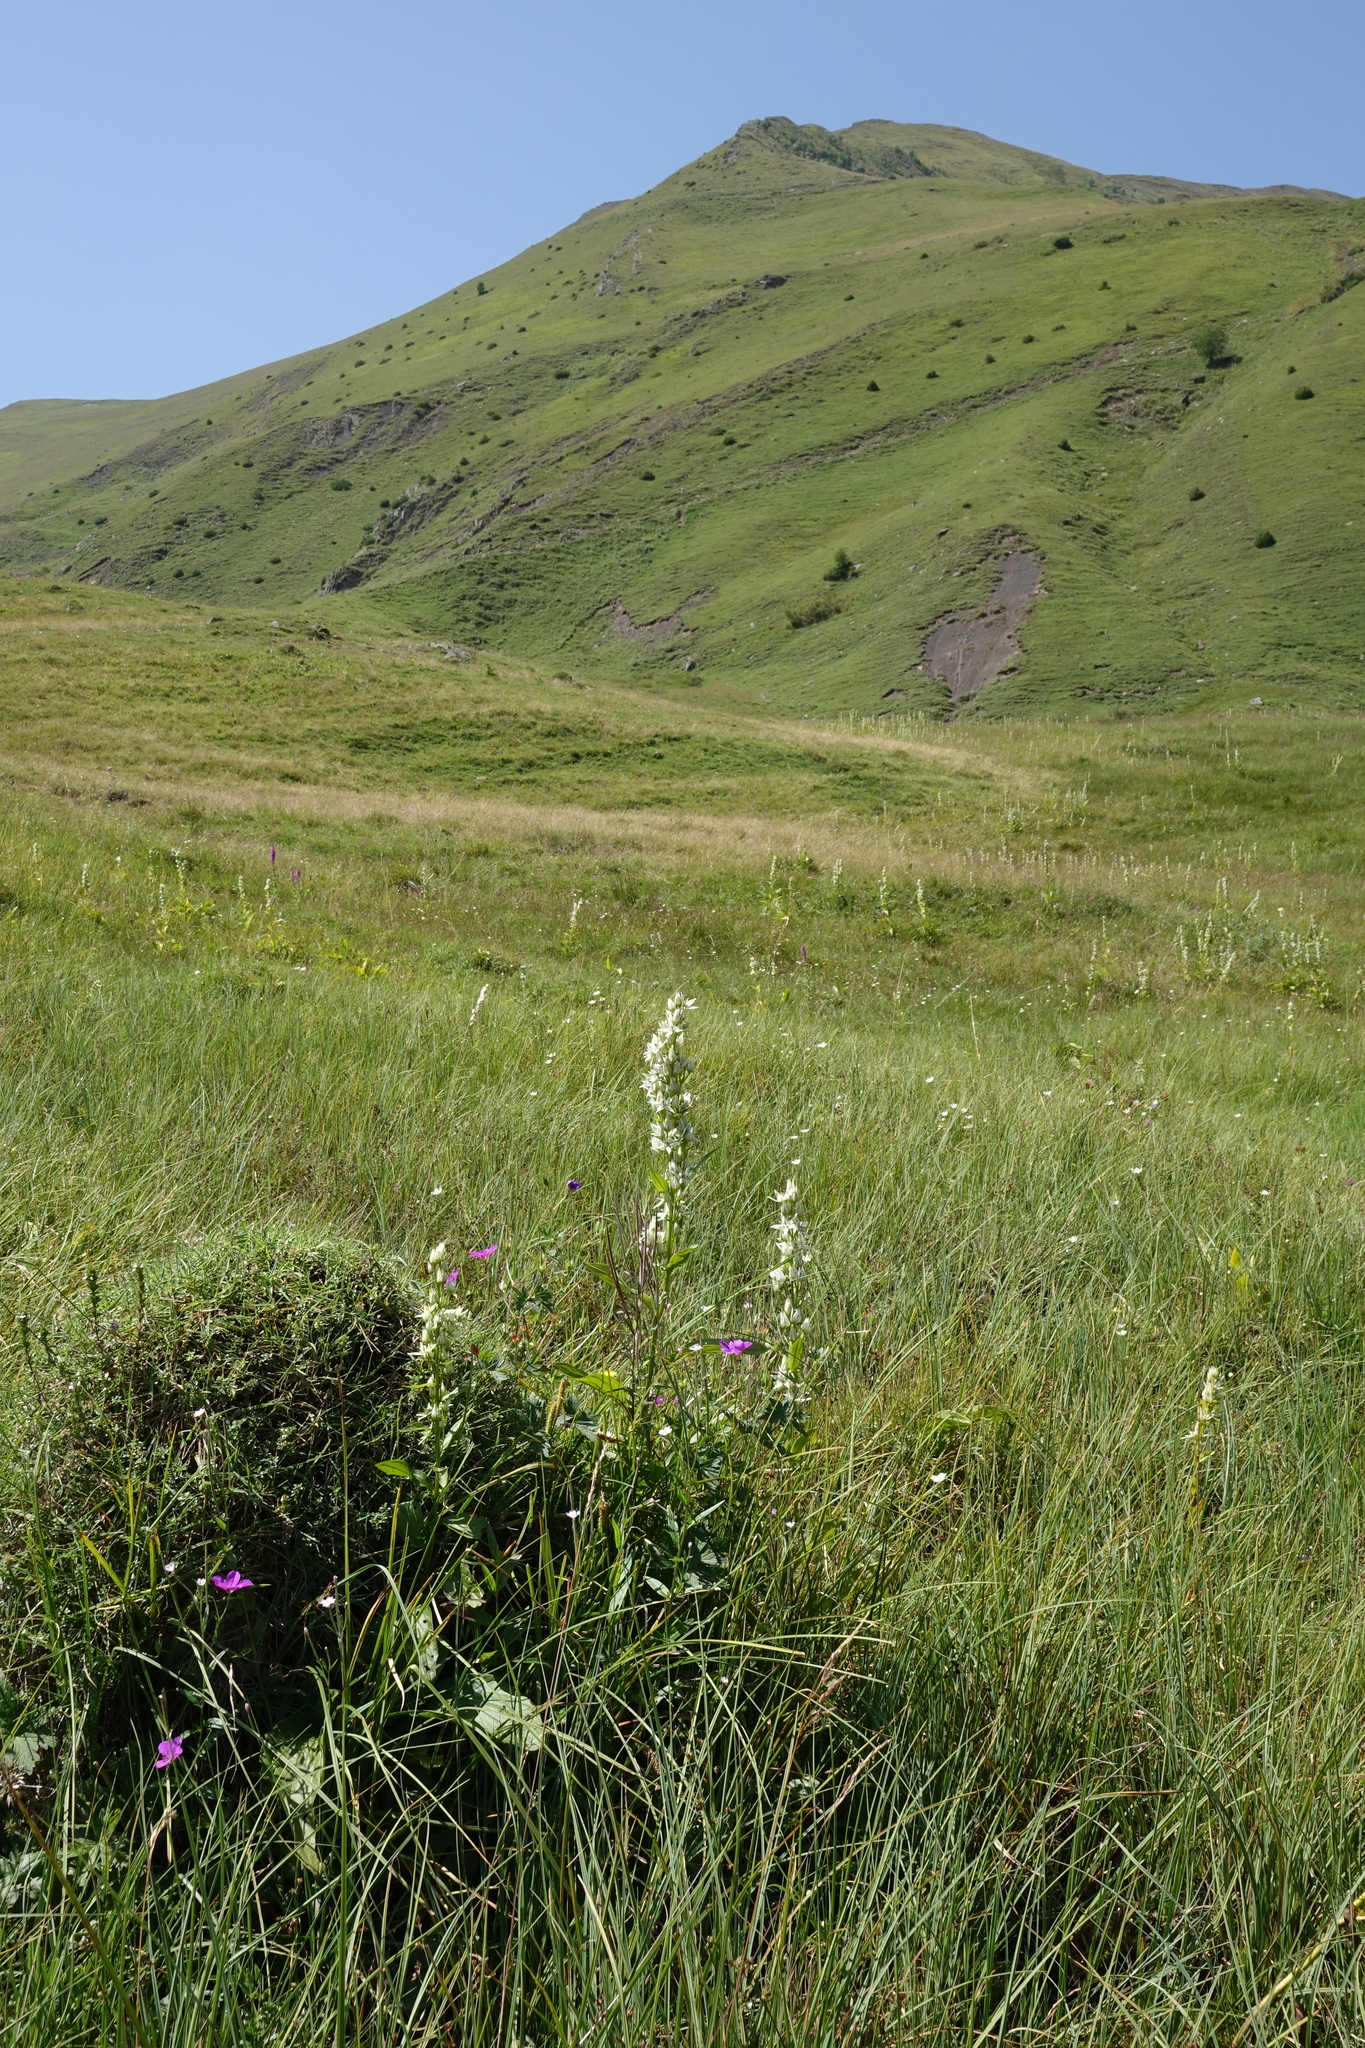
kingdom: Plantae
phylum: Tracheophyta
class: Magnoliopsida
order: Gentianales
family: Gentianaceae
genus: Swertia
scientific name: Swertia iberica
